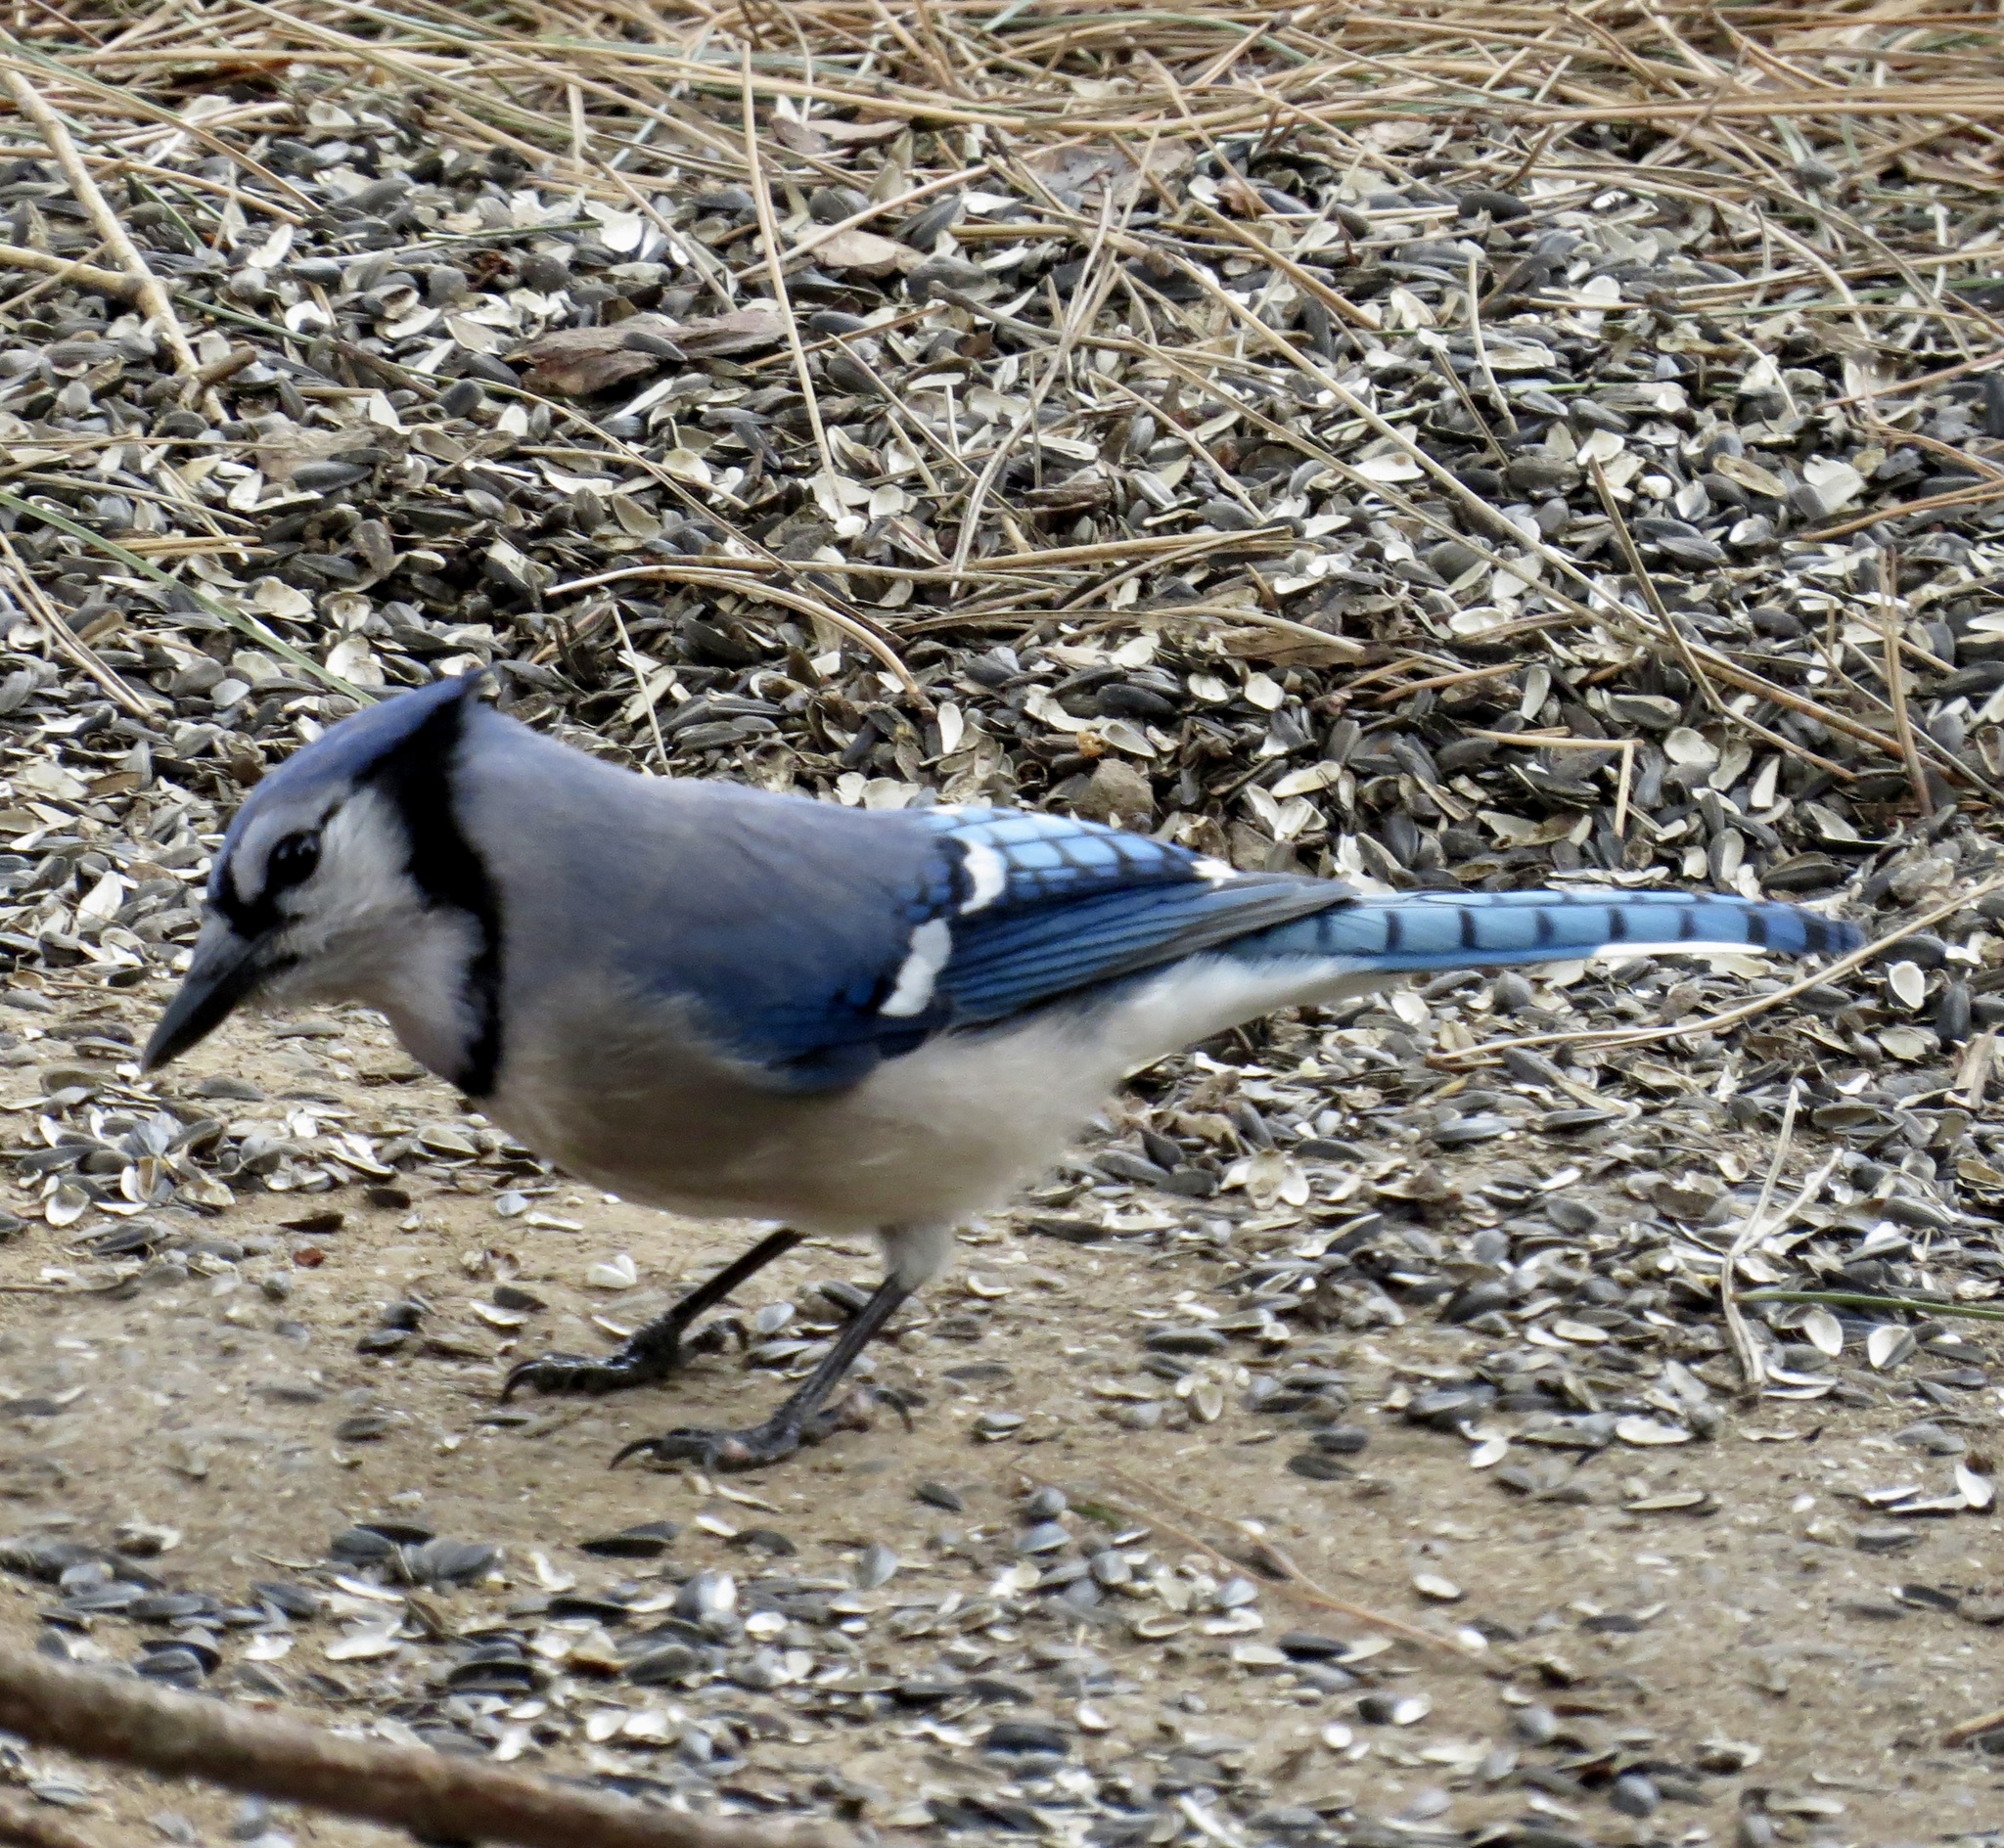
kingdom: Animalia
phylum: Chordata
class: Aves
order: Passeriformes
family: Corvidae
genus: Cyanocitta
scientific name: Cyanocitta cristata
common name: Blue jay
